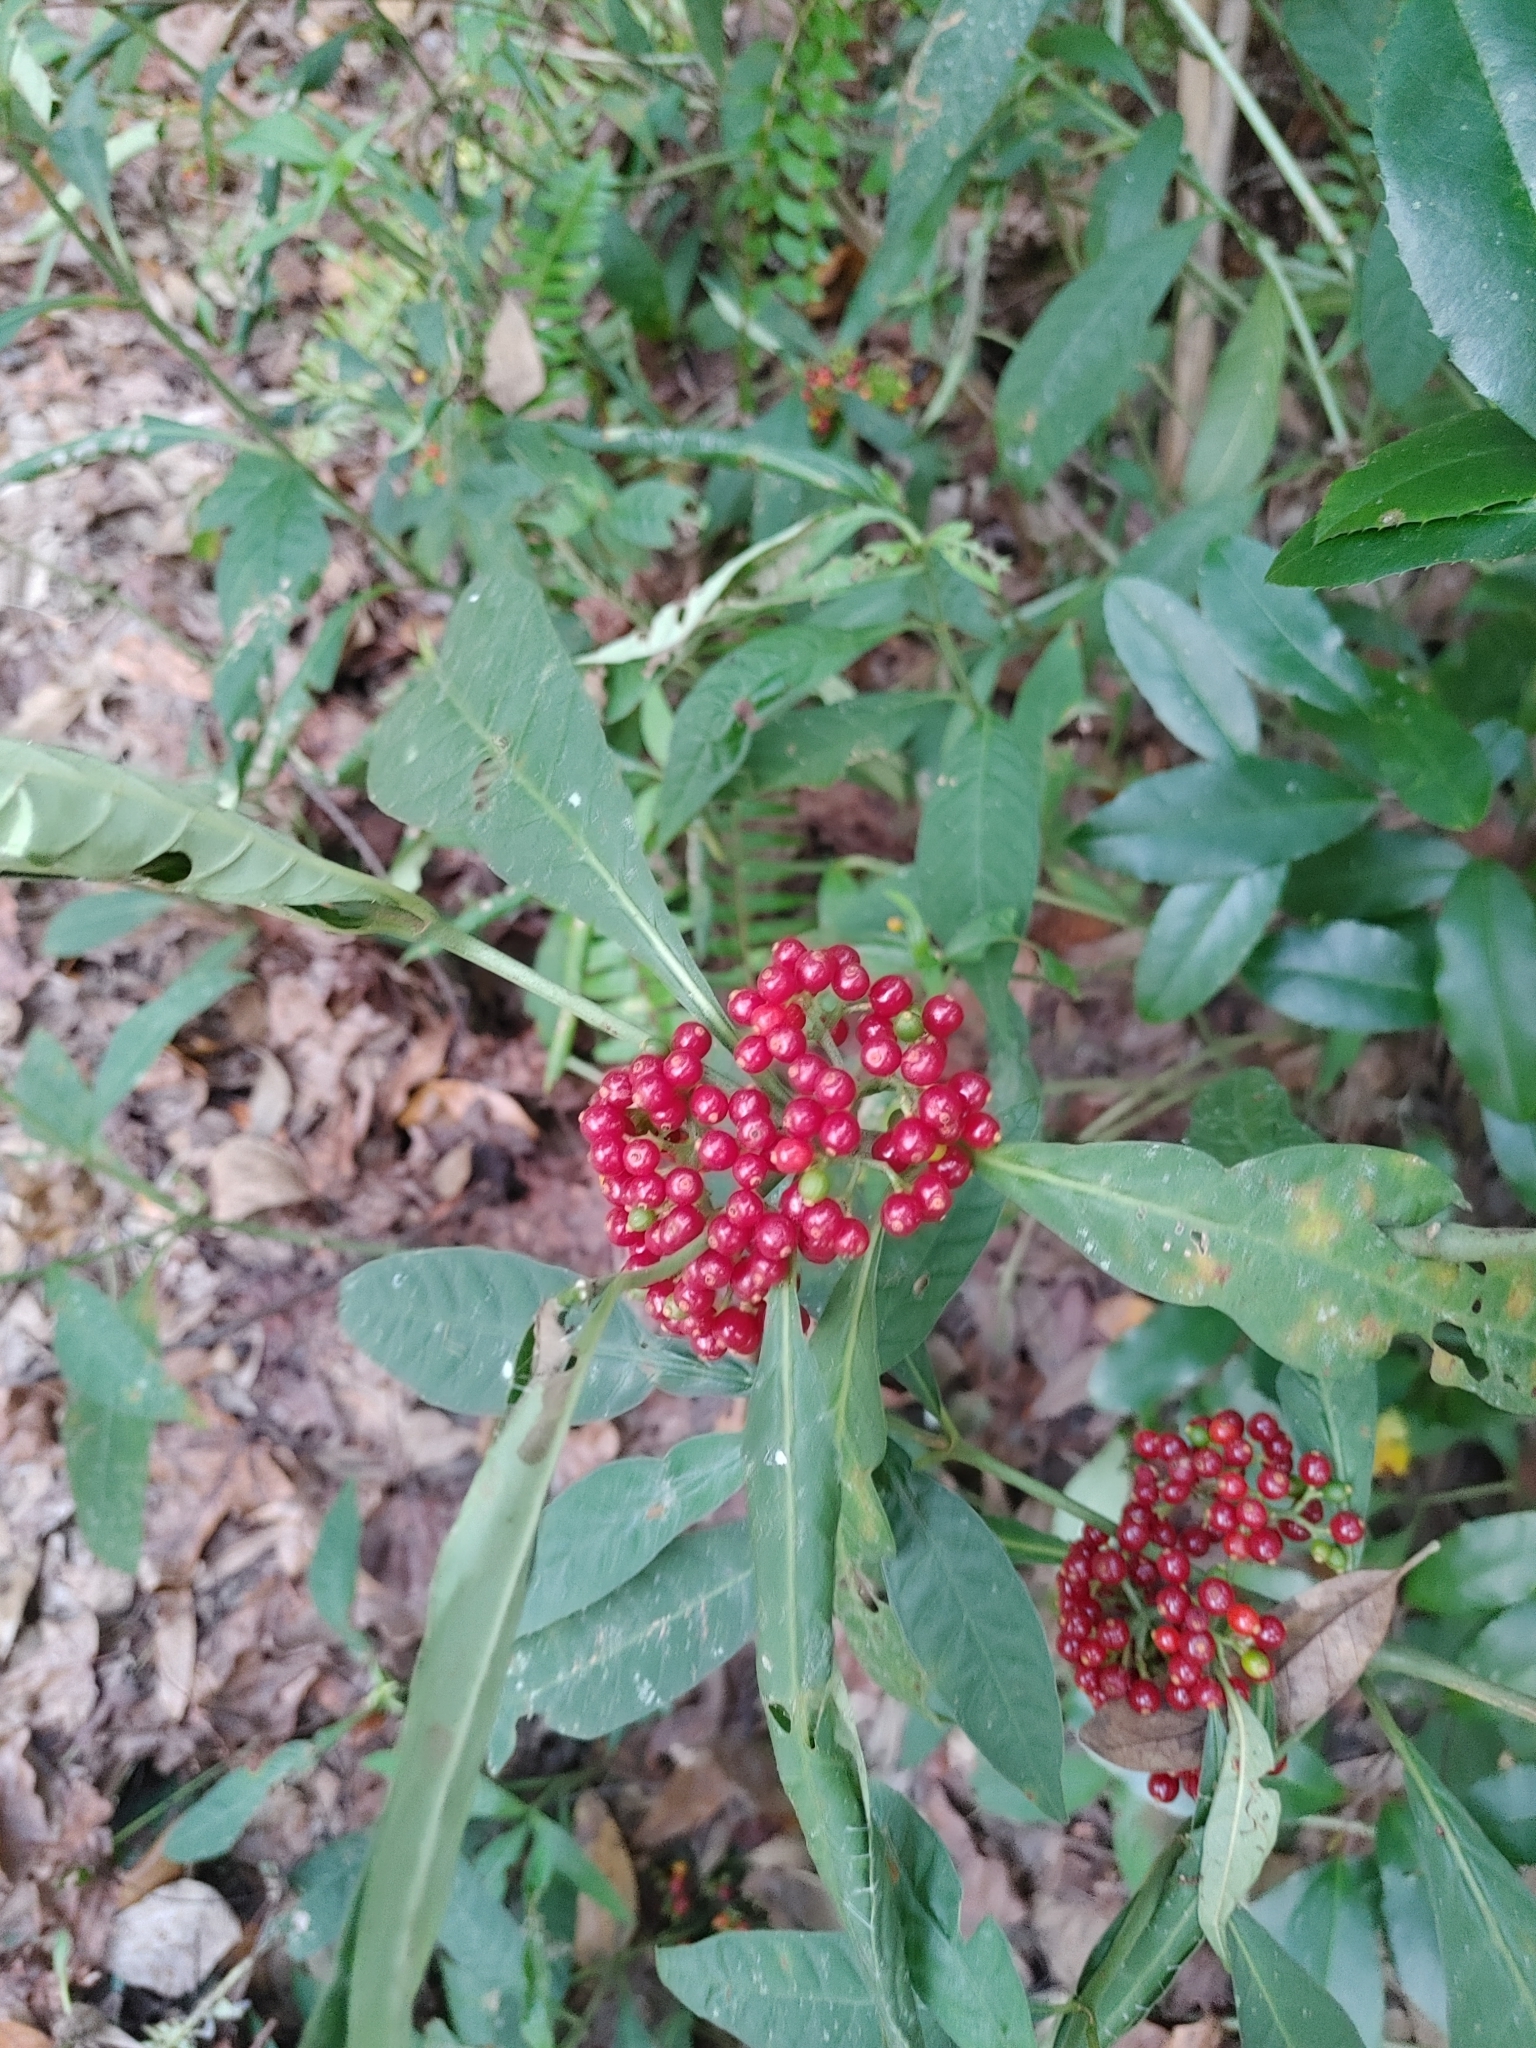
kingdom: Plantae
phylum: Tracheophyta
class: Magnoliopsida
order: Gentianales
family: Rubiaceae
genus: Psychotria
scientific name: Psychotria tenuifolia
